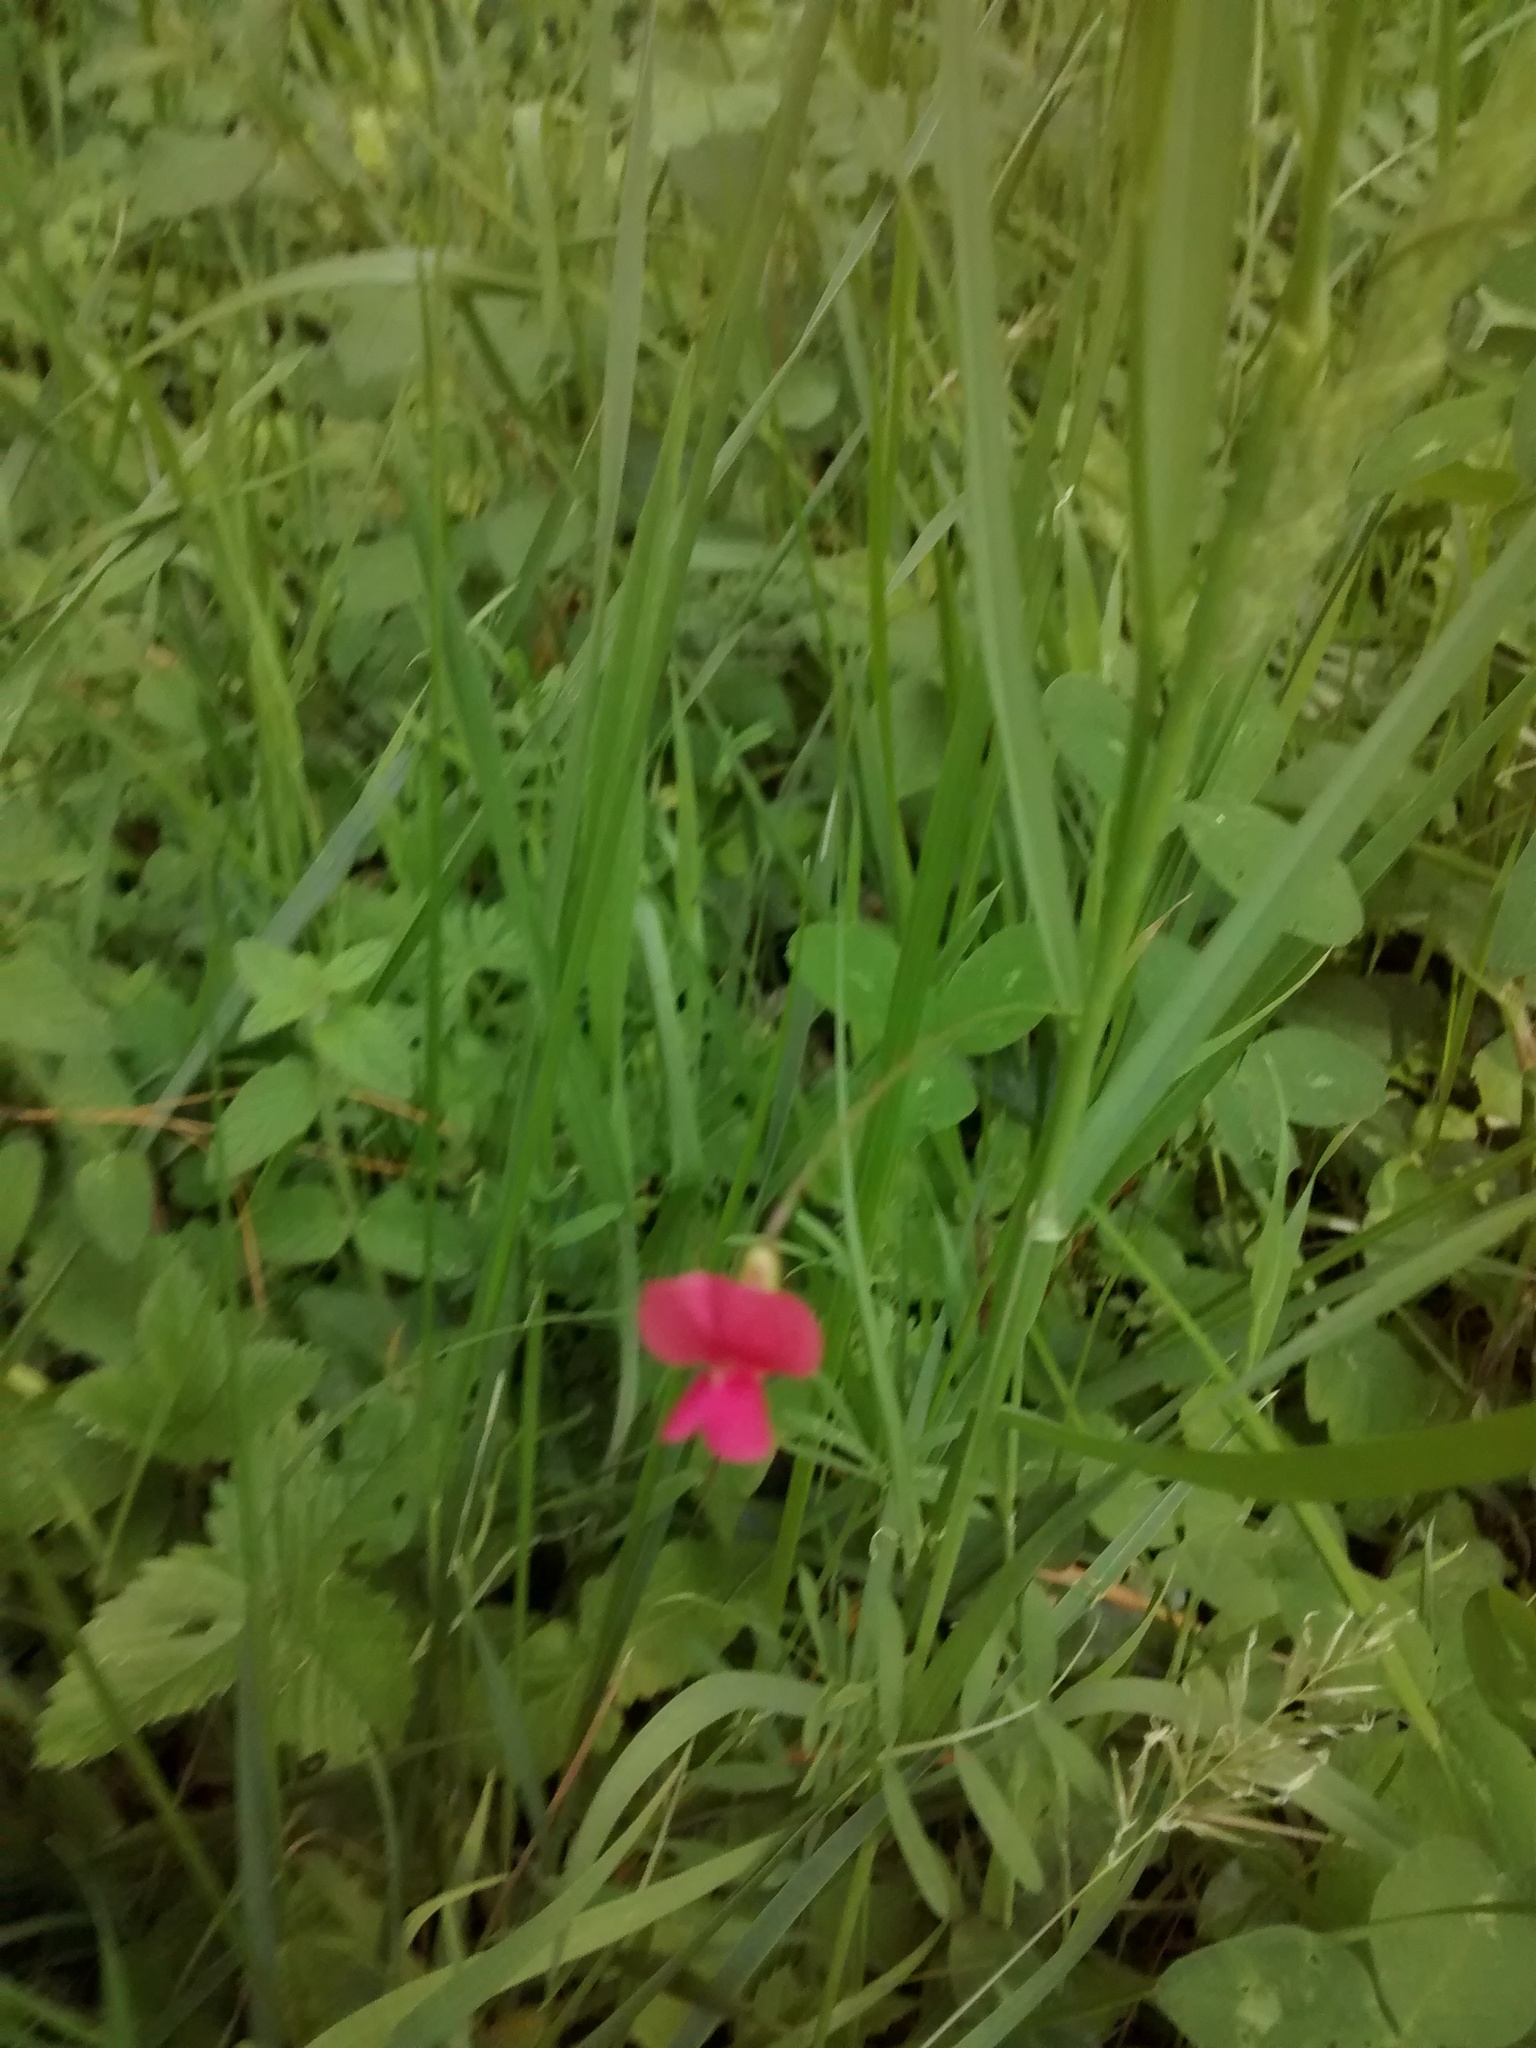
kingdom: Plantae
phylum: Tracheophyta
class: Magnoliopsida
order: Fabales
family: Fabaceae
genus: Lathyrus
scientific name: Lathyrus cicera
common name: Red vetchling
